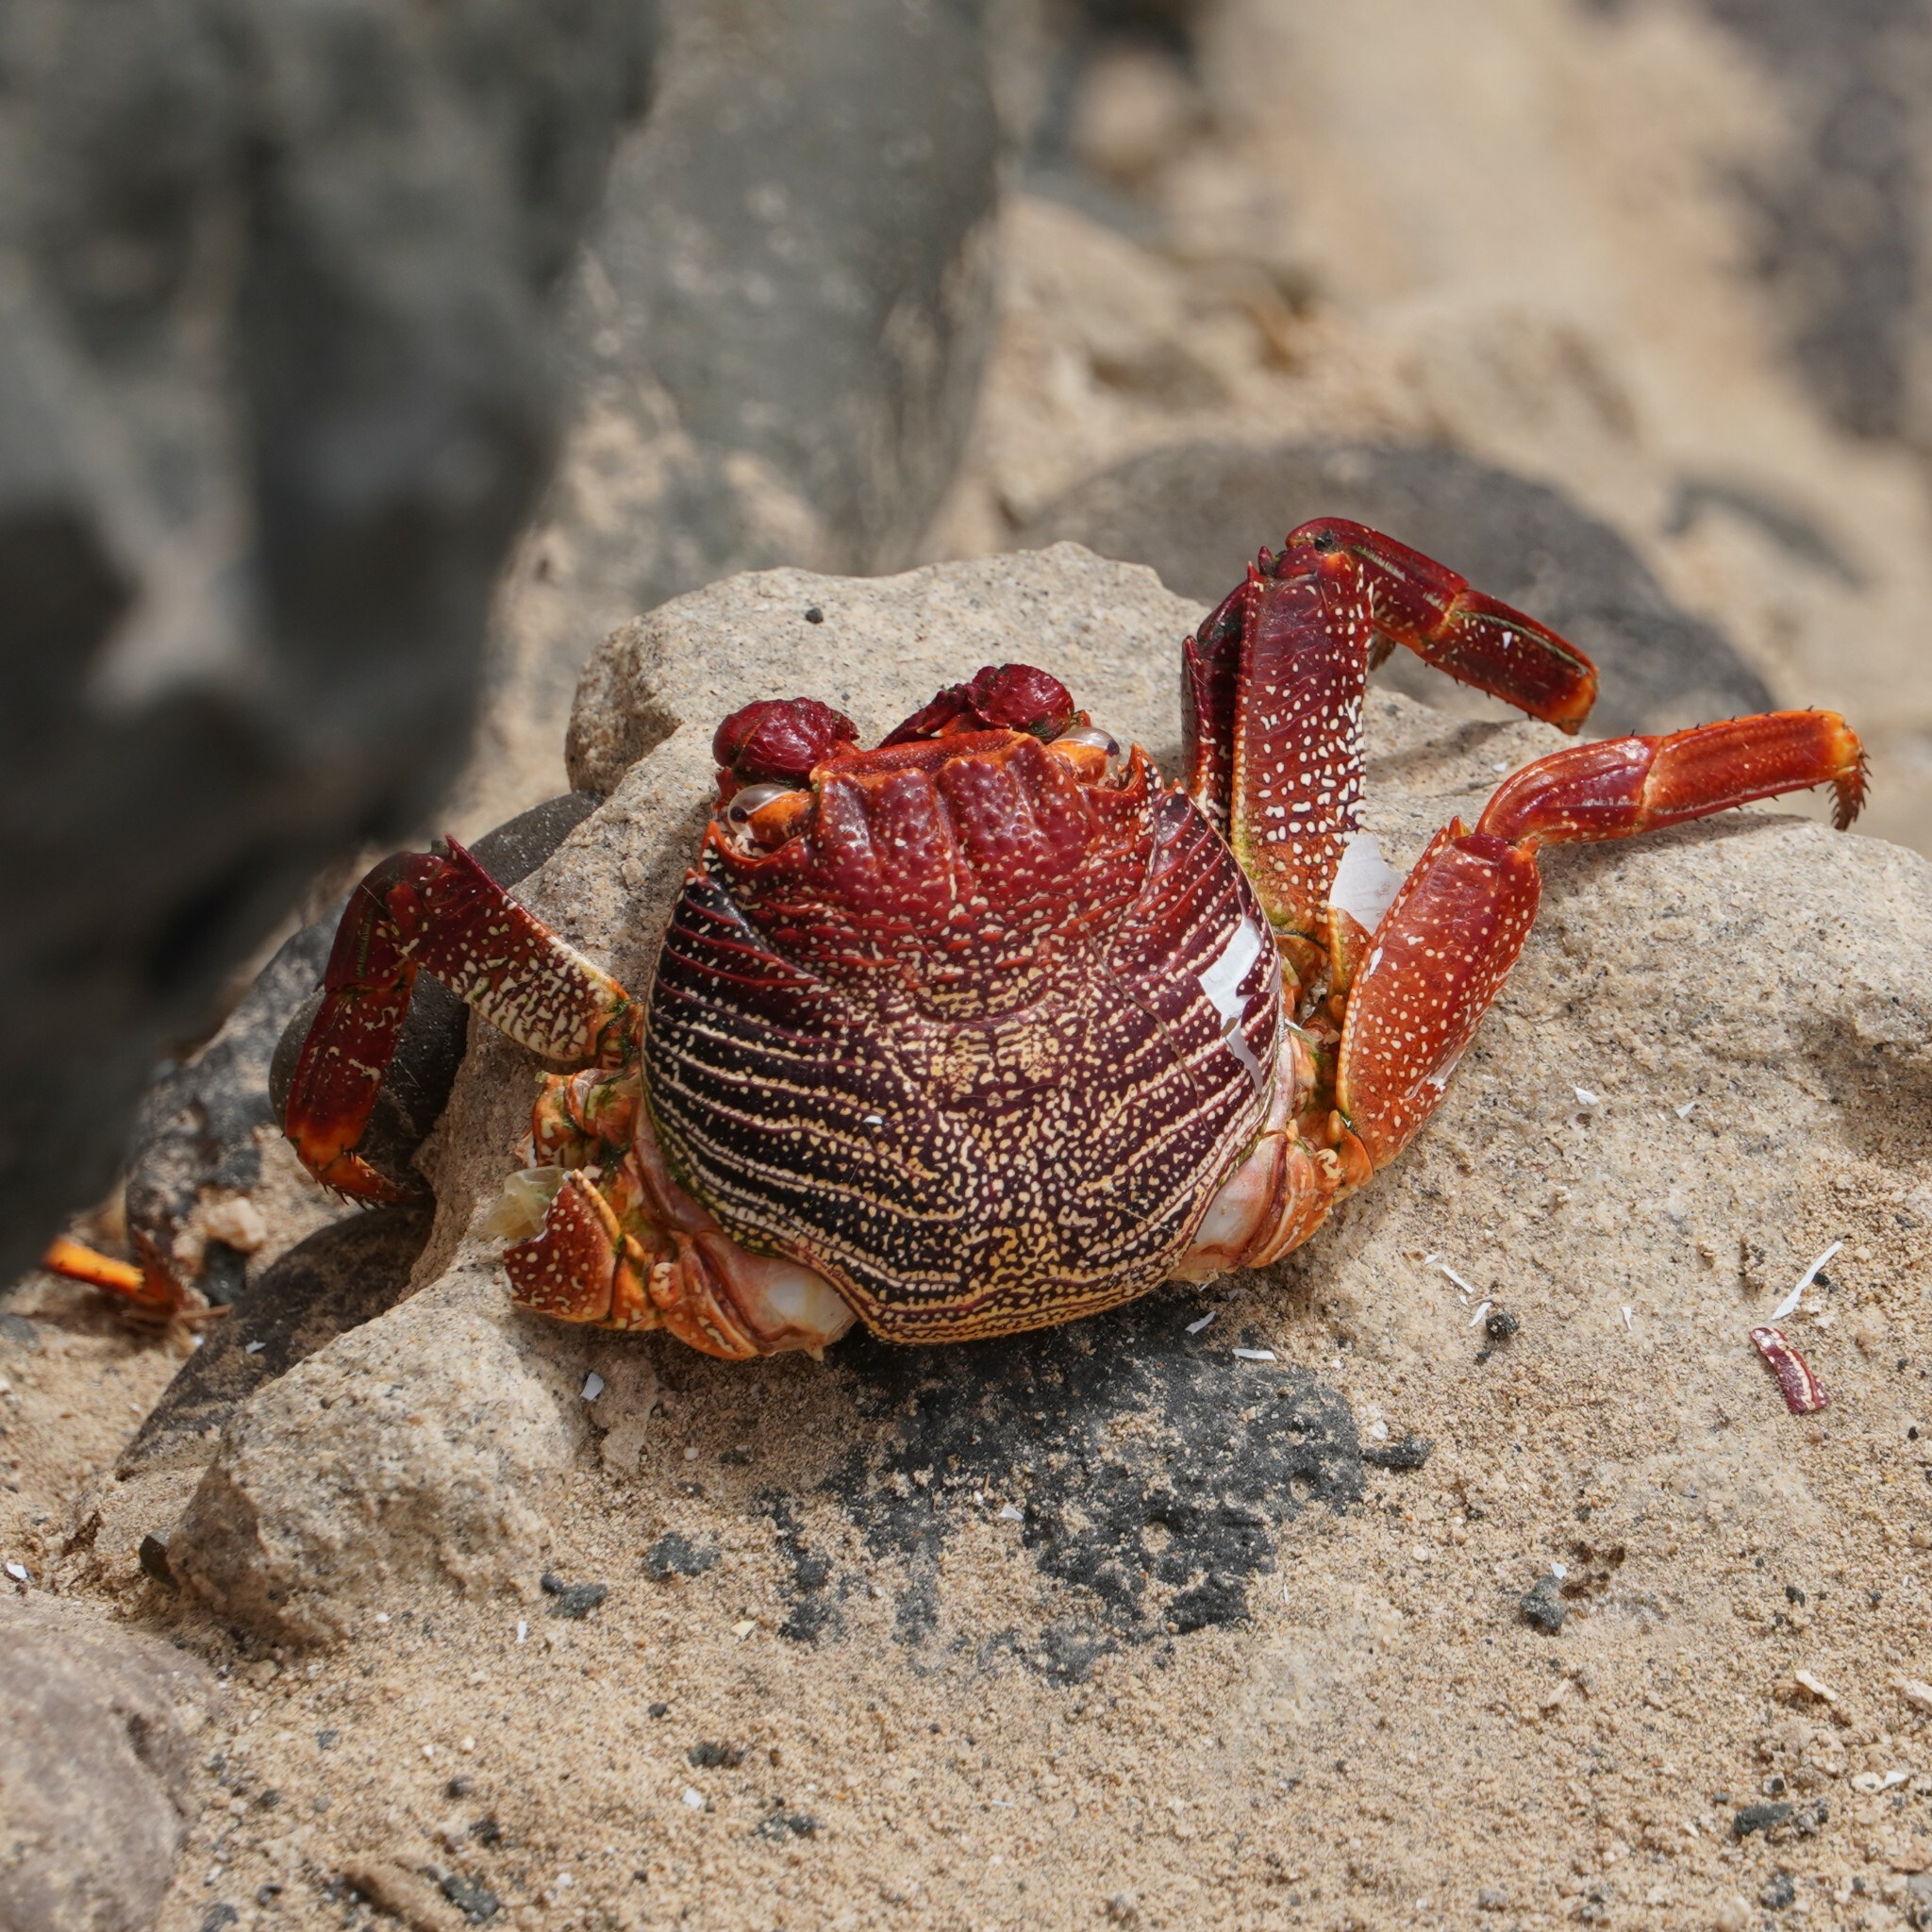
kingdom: Animalia
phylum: Arthropoda
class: Malacostraca
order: Decapoda
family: Grapsidae
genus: Grapsus
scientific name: Grapsus adscensionis
